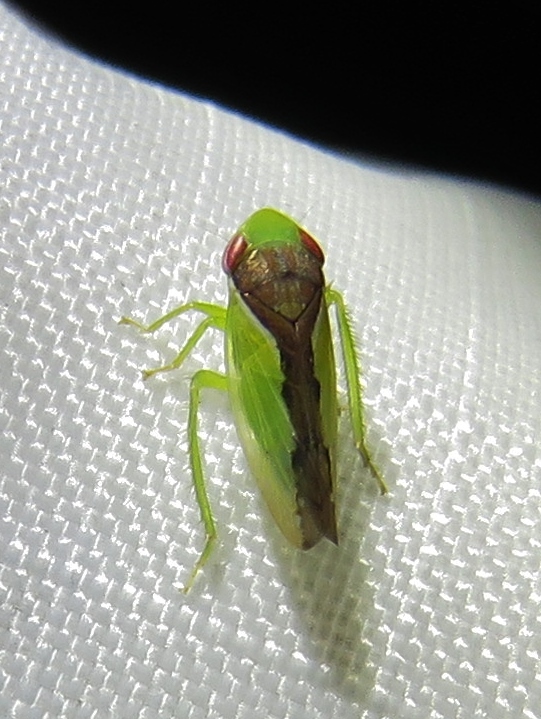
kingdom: Animalia
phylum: Arthropoda
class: Insecta
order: Hemiptera
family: Cicadellidae
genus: Omansobara ing
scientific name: Omansobara ing Omansobara palliolata
